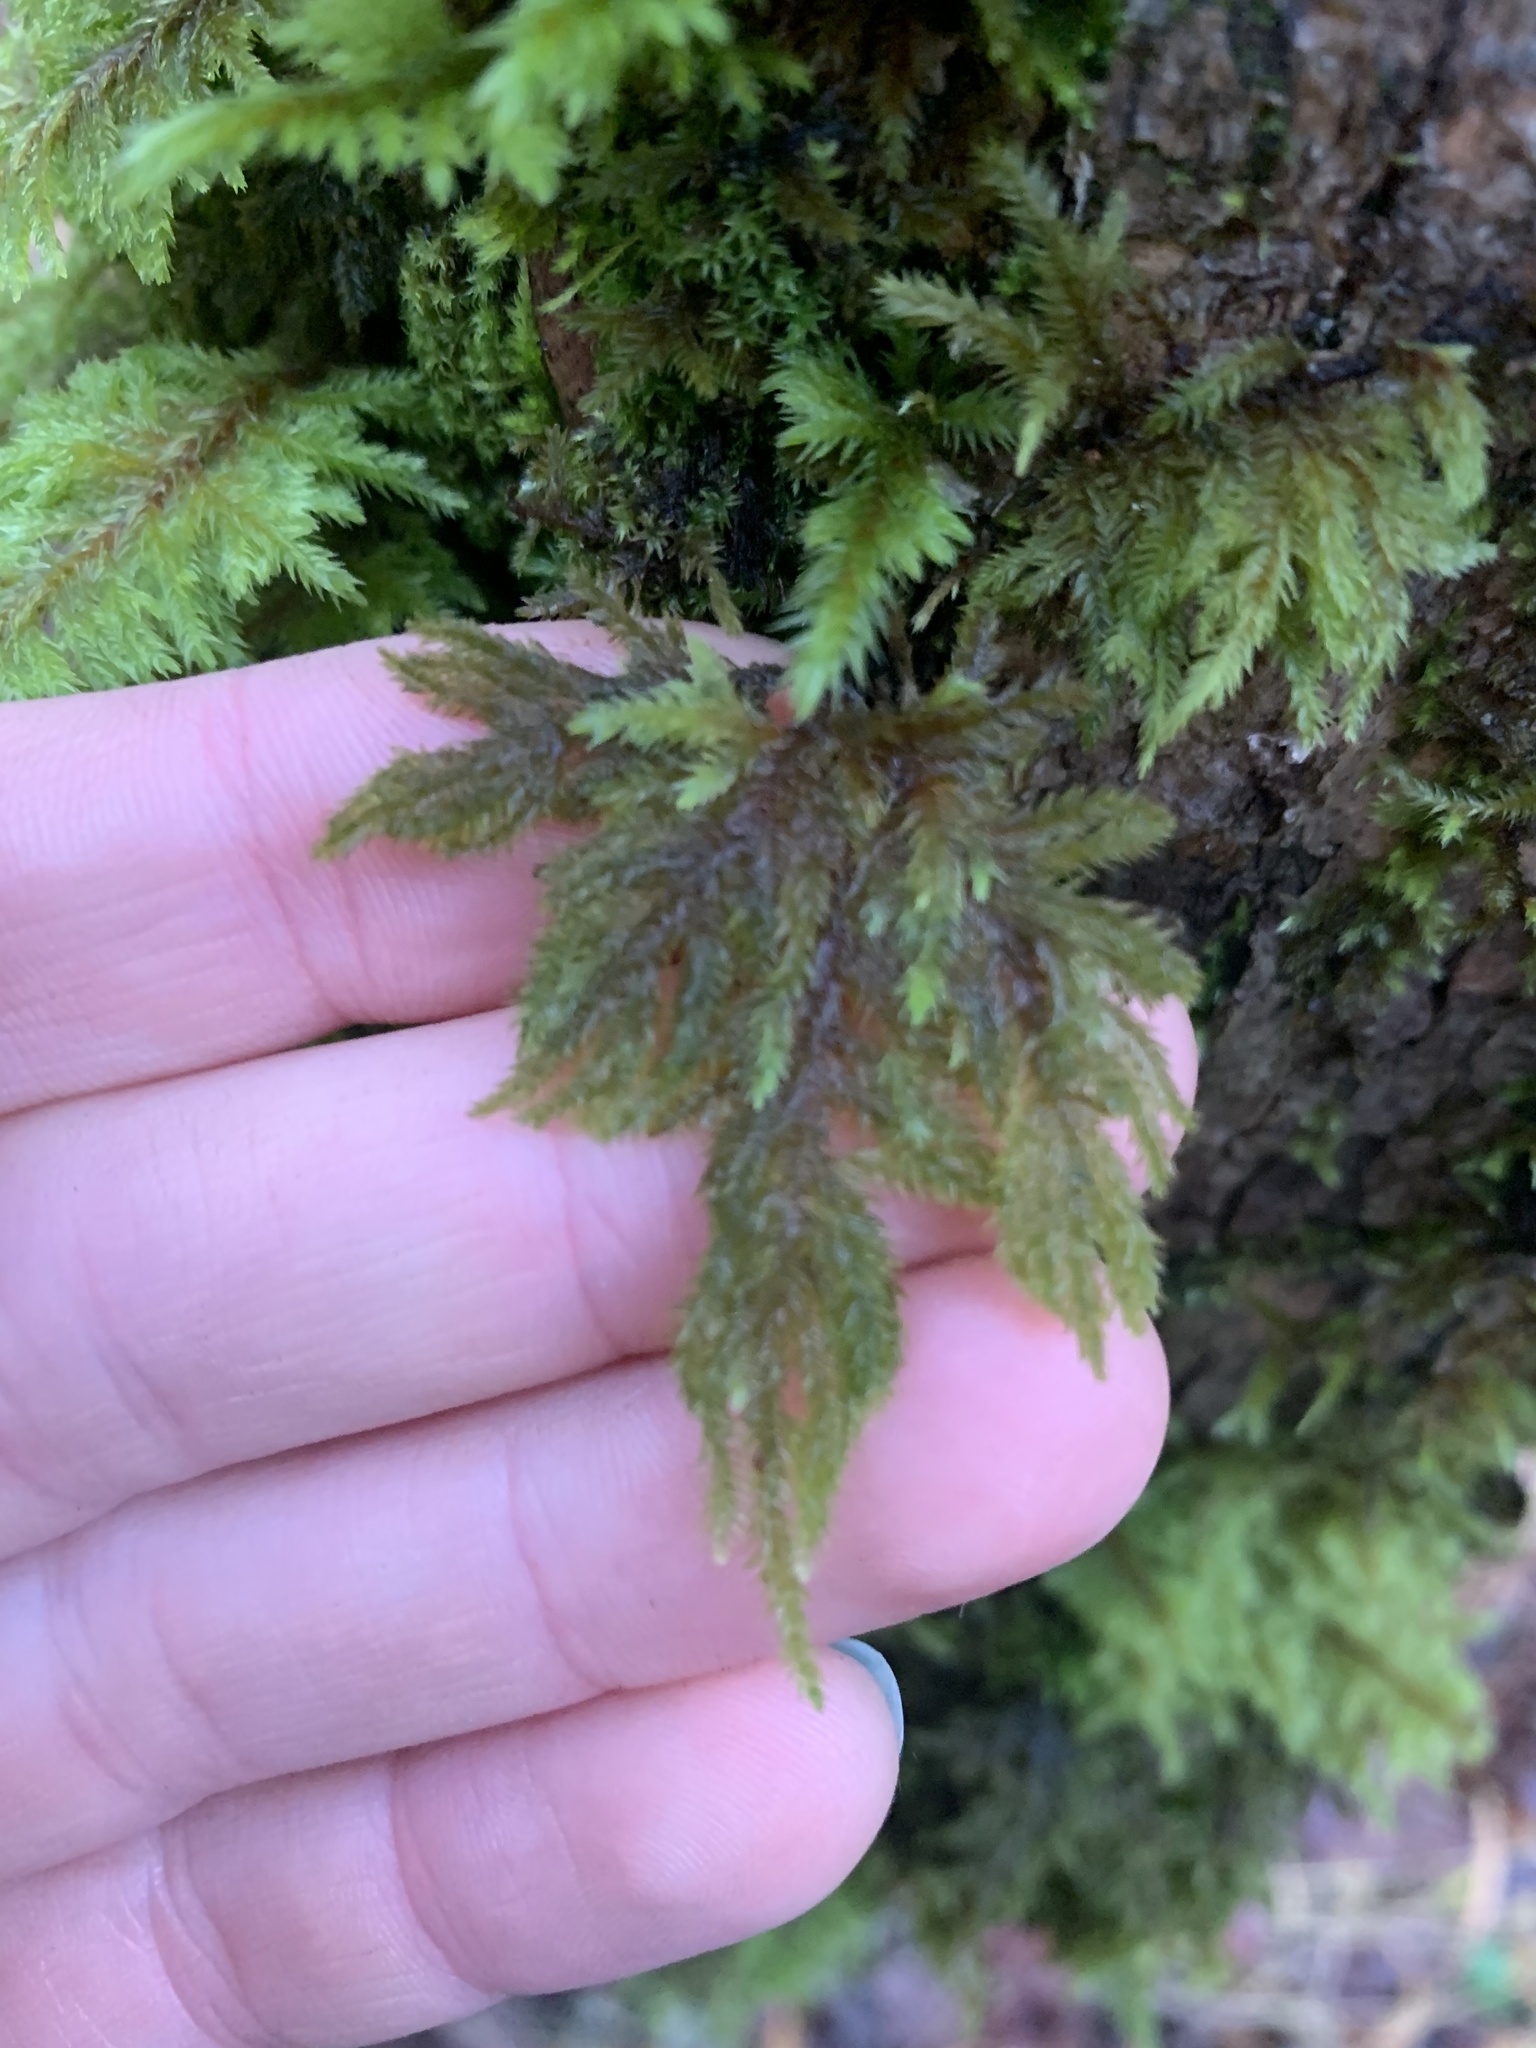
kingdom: Plantae
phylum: Bryophyta
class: Bryopsida
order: Hypnales
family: Cryphaeaceae
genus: Dendroalsia
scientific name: Dendroalsia abietina
